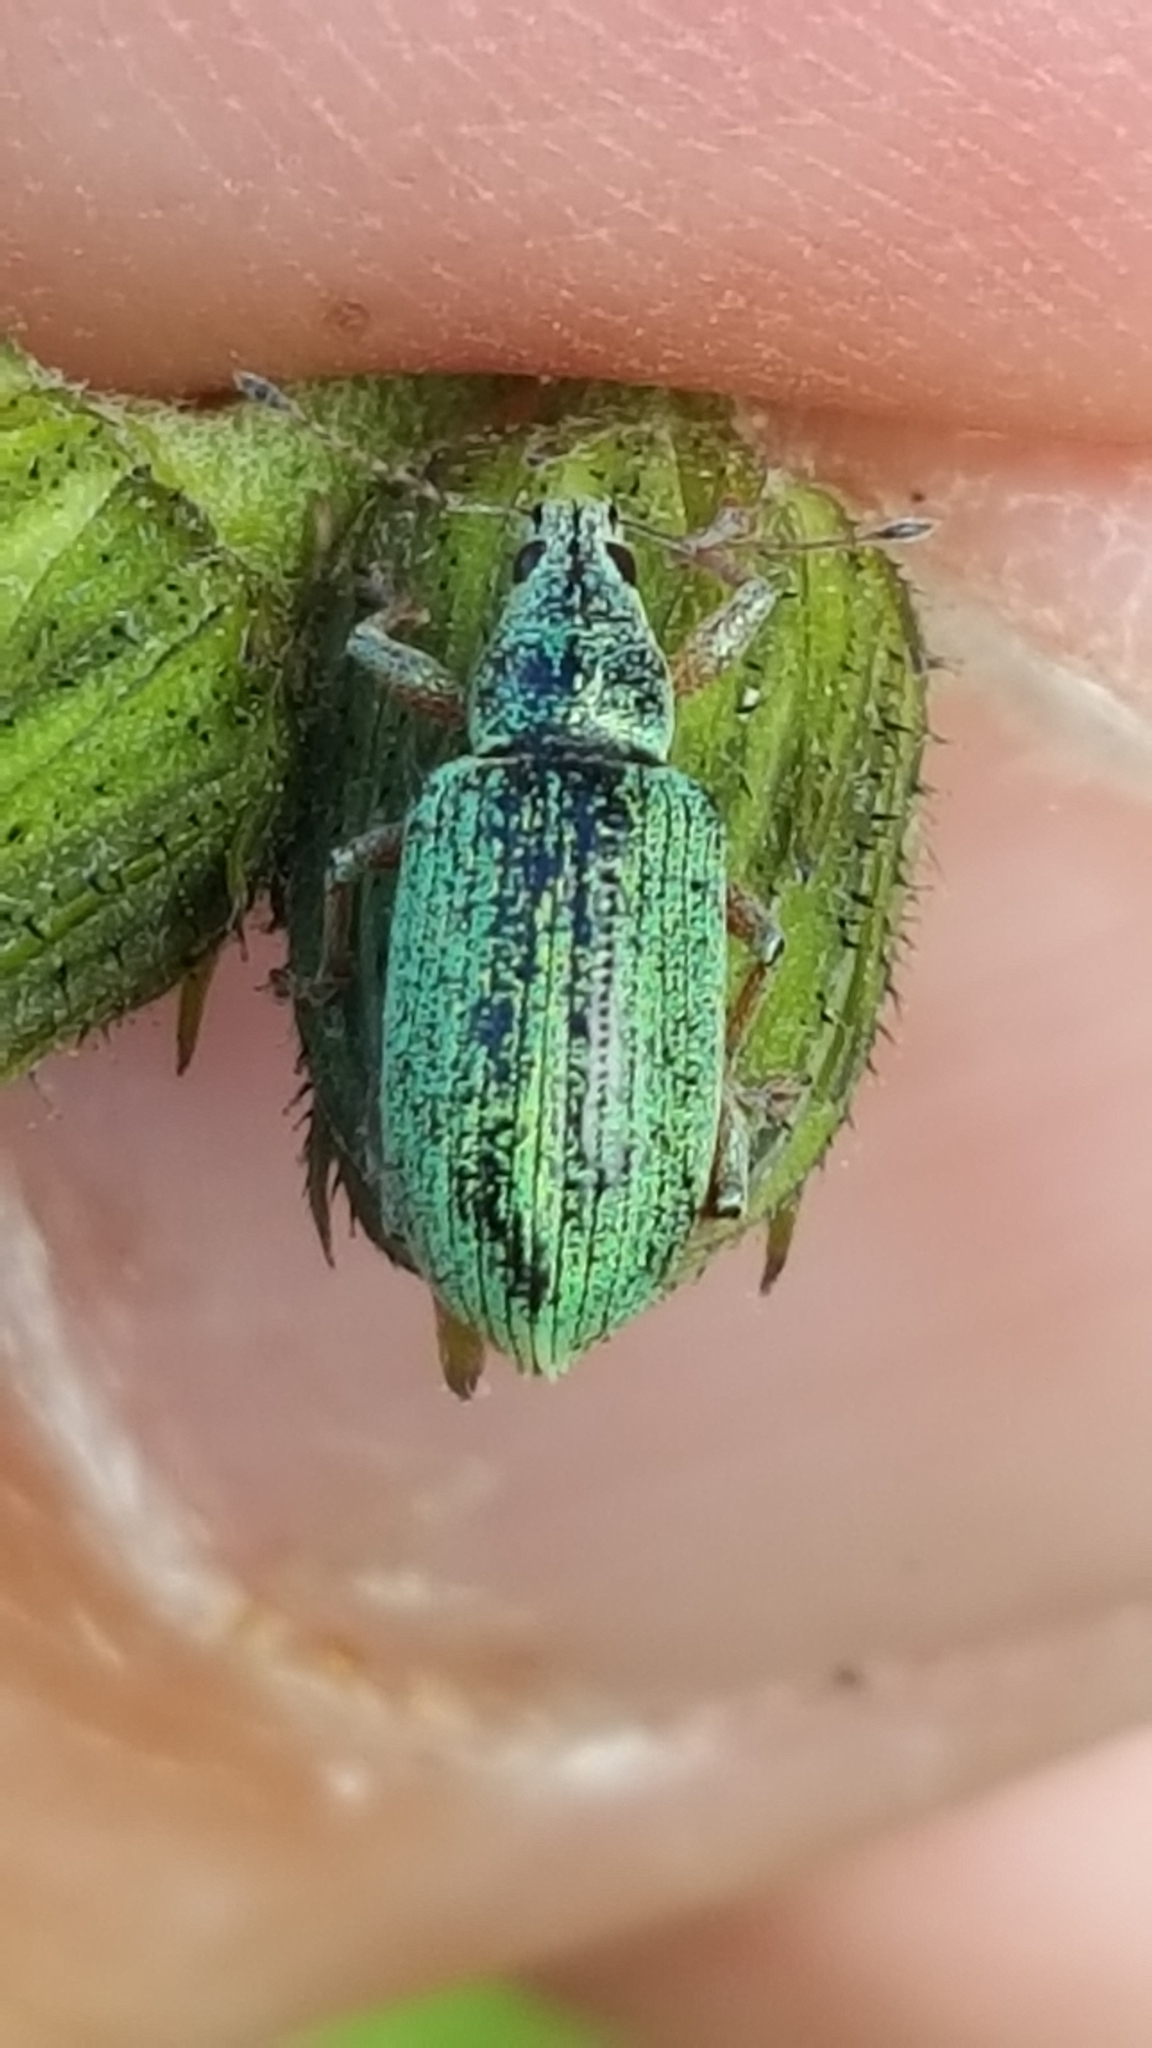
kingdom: Animalia
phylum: Arthropoda
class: Insecta
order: Coleoptera
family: Curculionidae
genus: Polydrusus
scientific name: Polydrusus formosus
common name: Weevil
